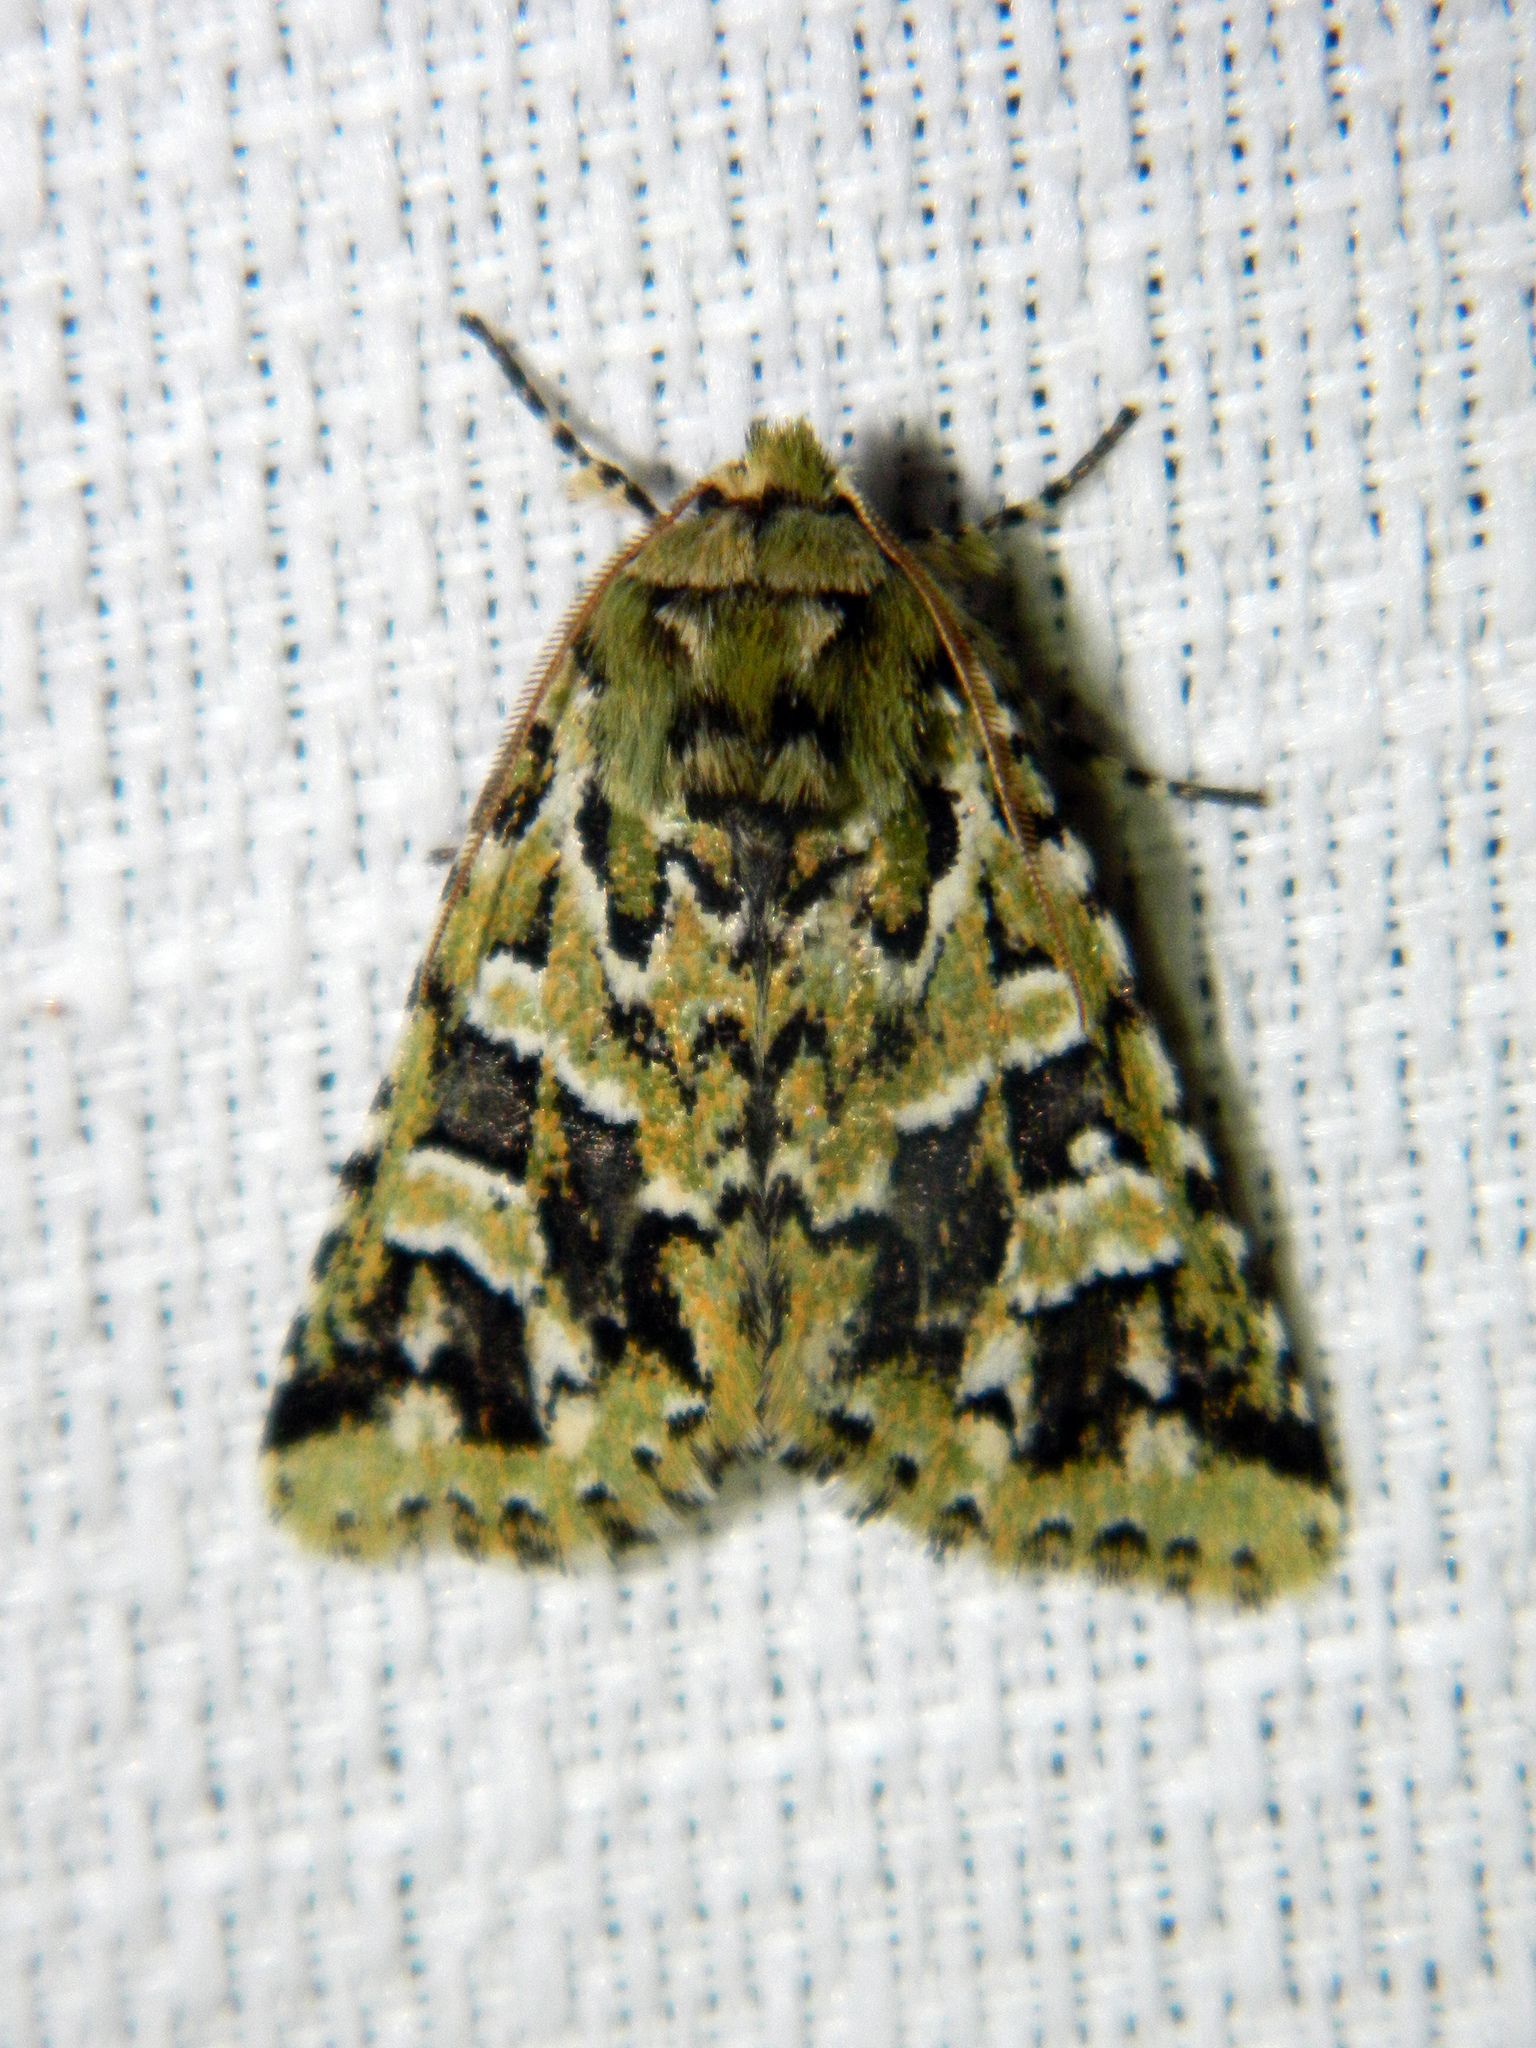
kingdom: Animalia
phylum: Arthropoda
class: Insecta
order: Lepidoptera
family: Noctuidae
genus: Feralia
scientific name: Feralia comstocki
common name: Comstock's sallow
